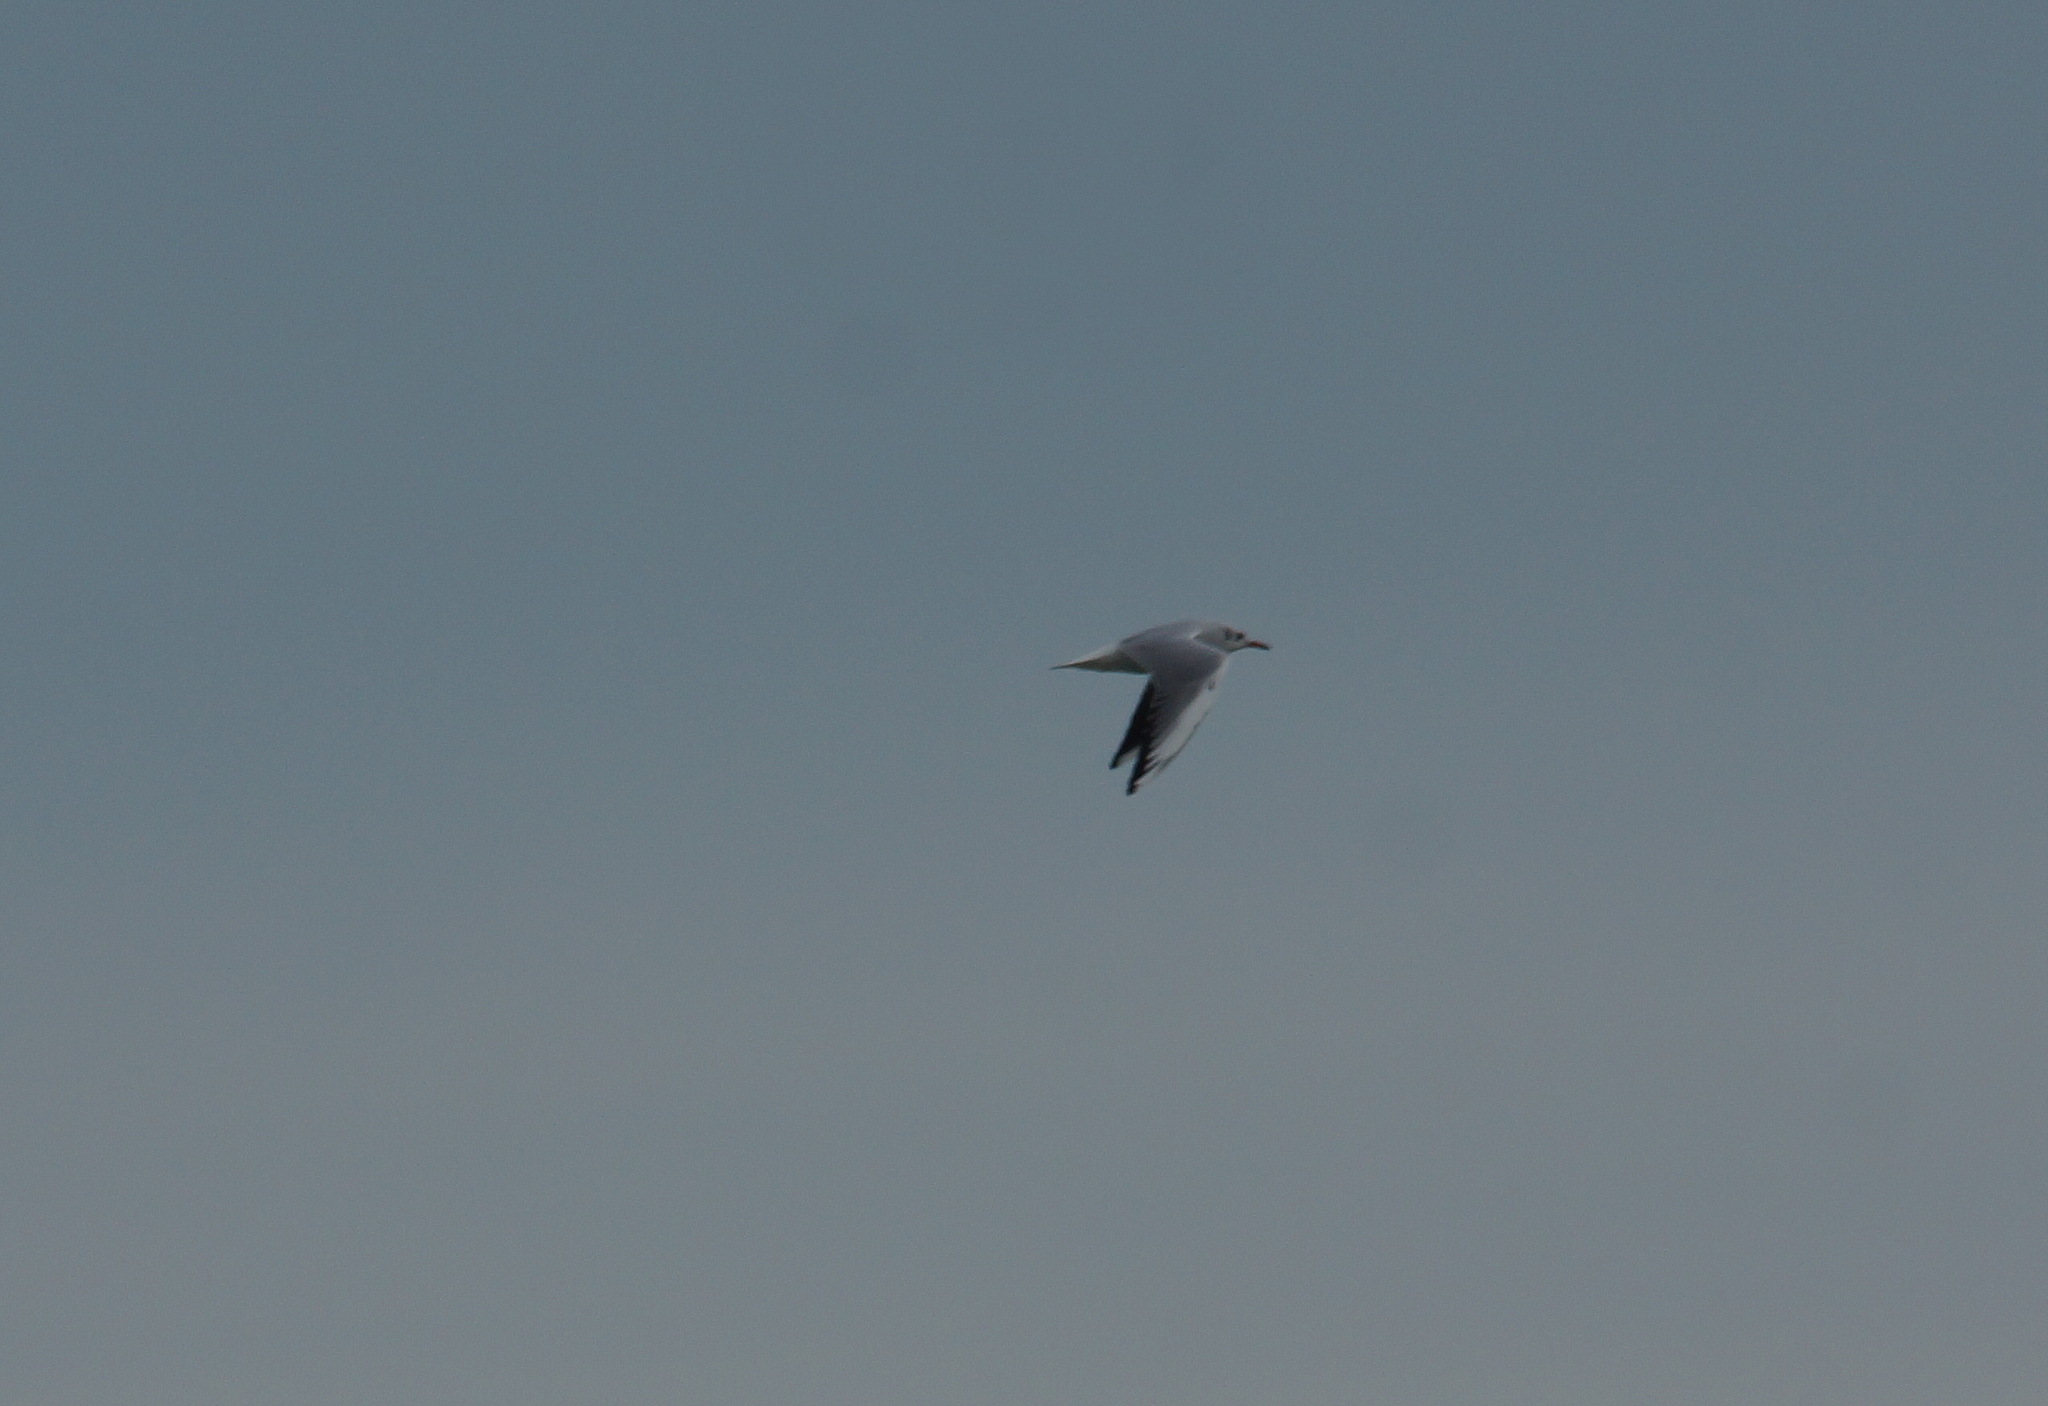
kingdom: Animalia
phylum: Chordata
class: Aves
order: Charadriiformes
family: Laridae
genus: Chroicocephalus
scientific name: Chroicocephalus ridibundus
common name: Black-headed gull
